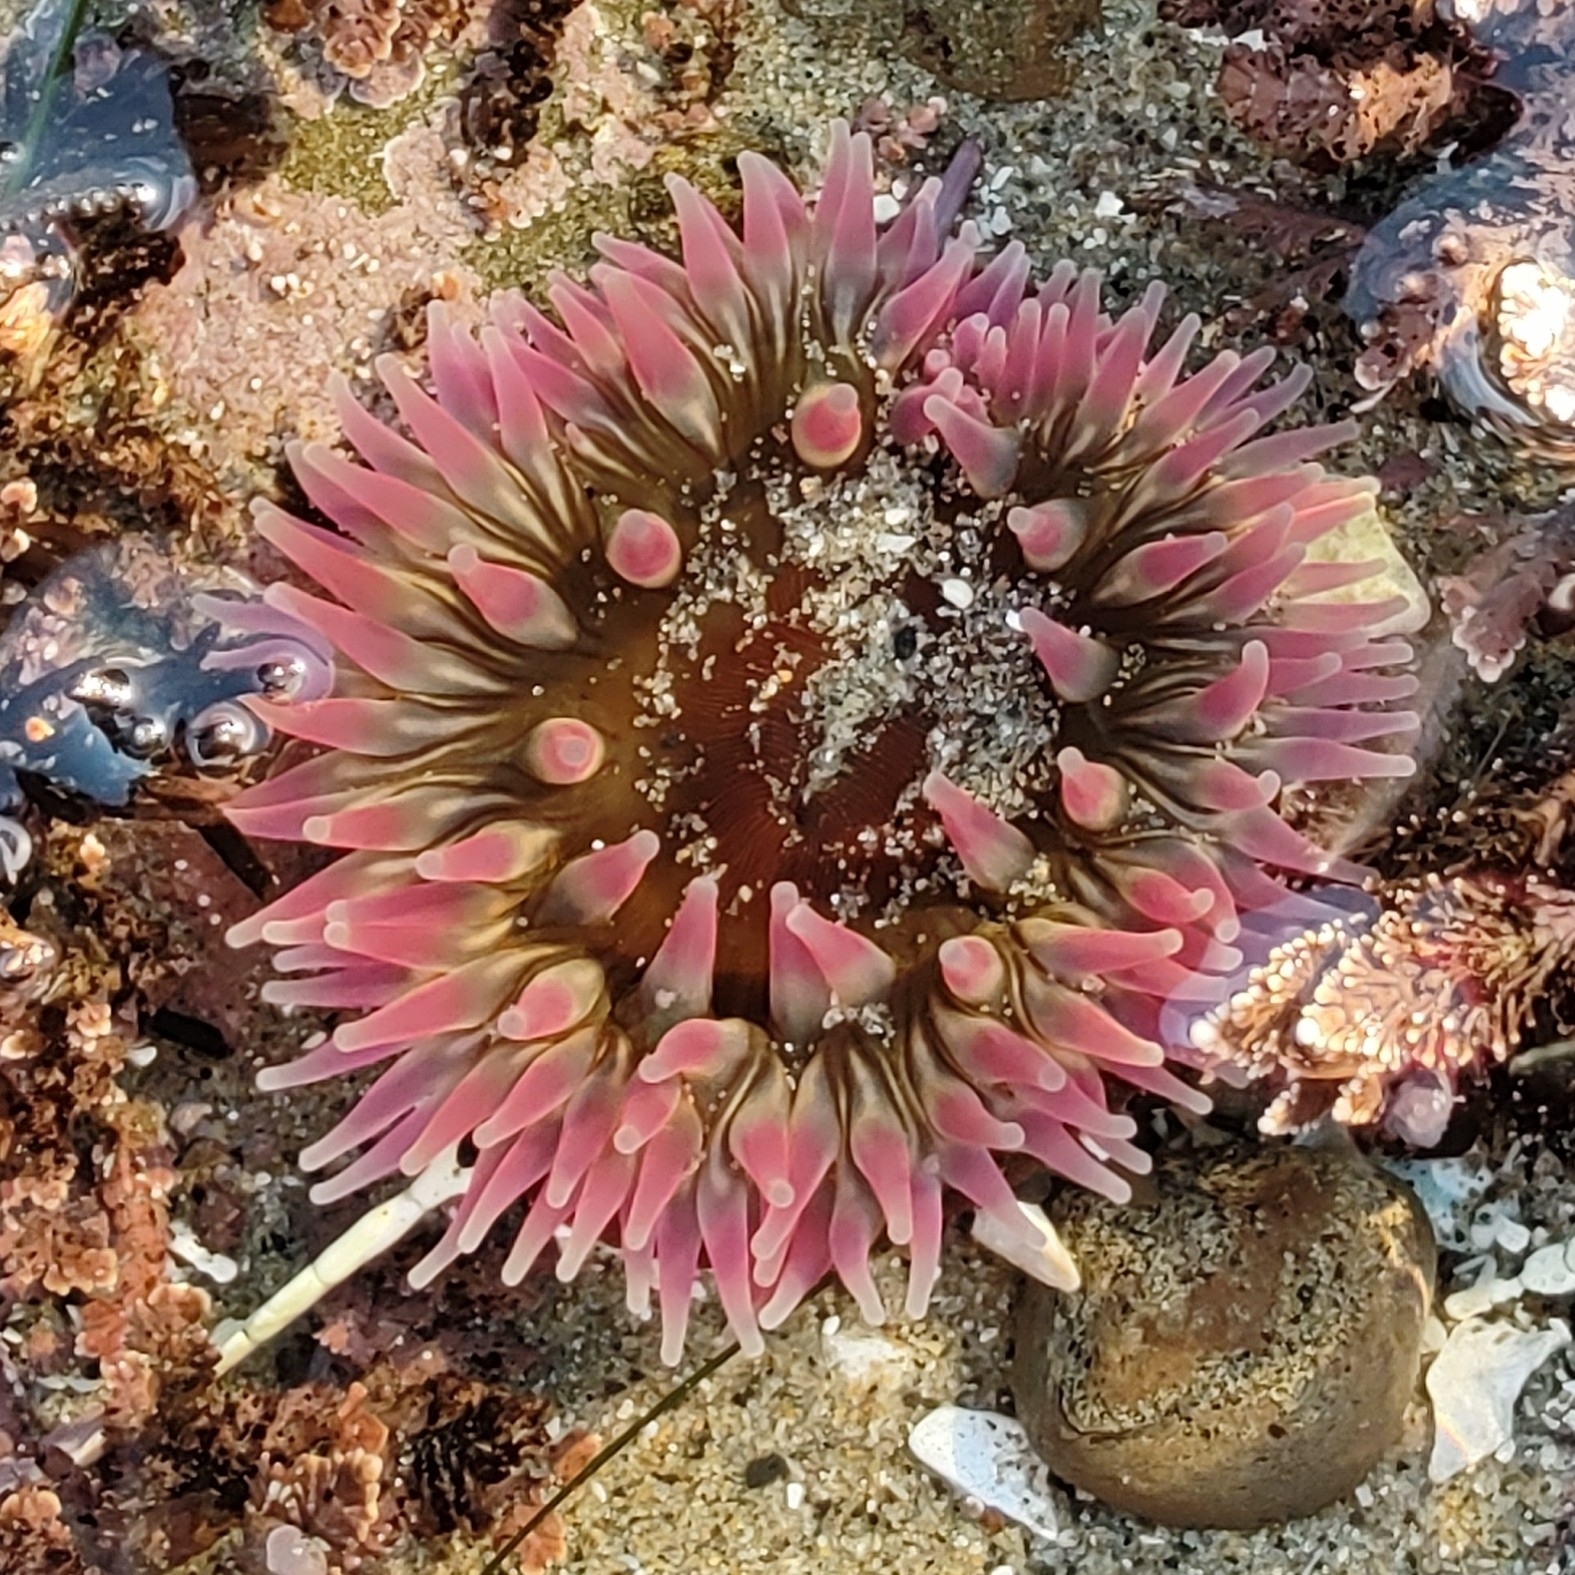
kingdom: Animalia
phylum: Cnidaria
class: Anthozoa
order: Actiniaria
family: Actiniidae
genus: Urticina
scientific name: Urticina clandestina
